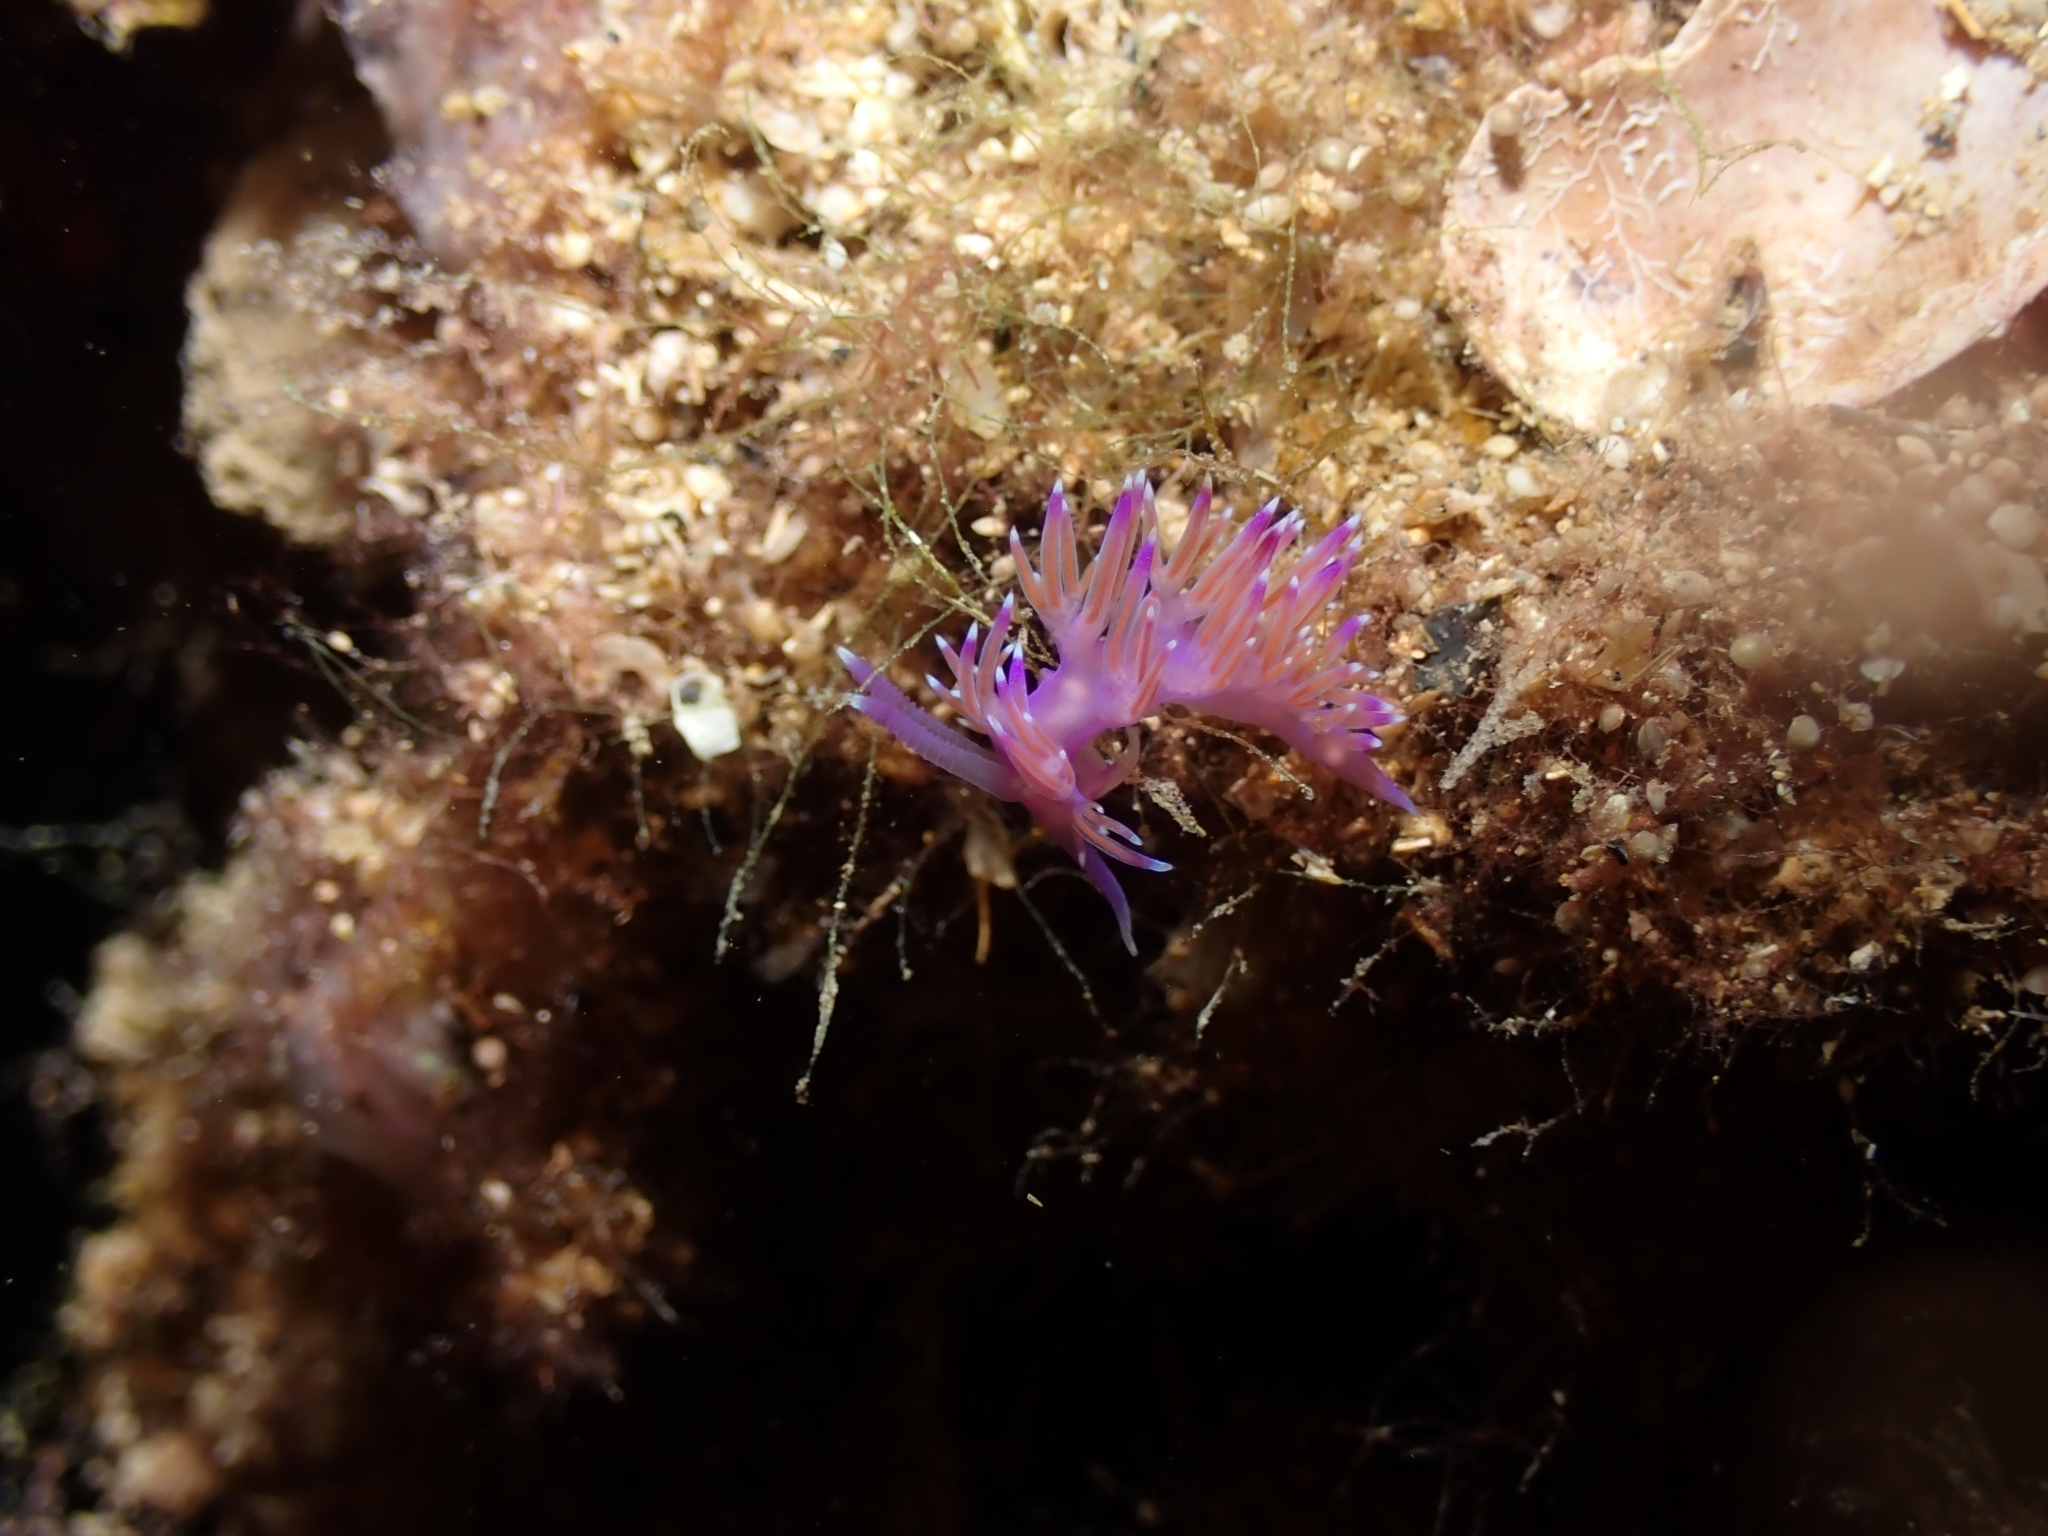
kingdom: Animalia
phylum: Mollusca
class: Gastropoda
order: Nudibranchia
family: Flabellinidae
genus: Flabellina
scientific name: Flabellina affinis
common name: Mediterranean violet aeolid
